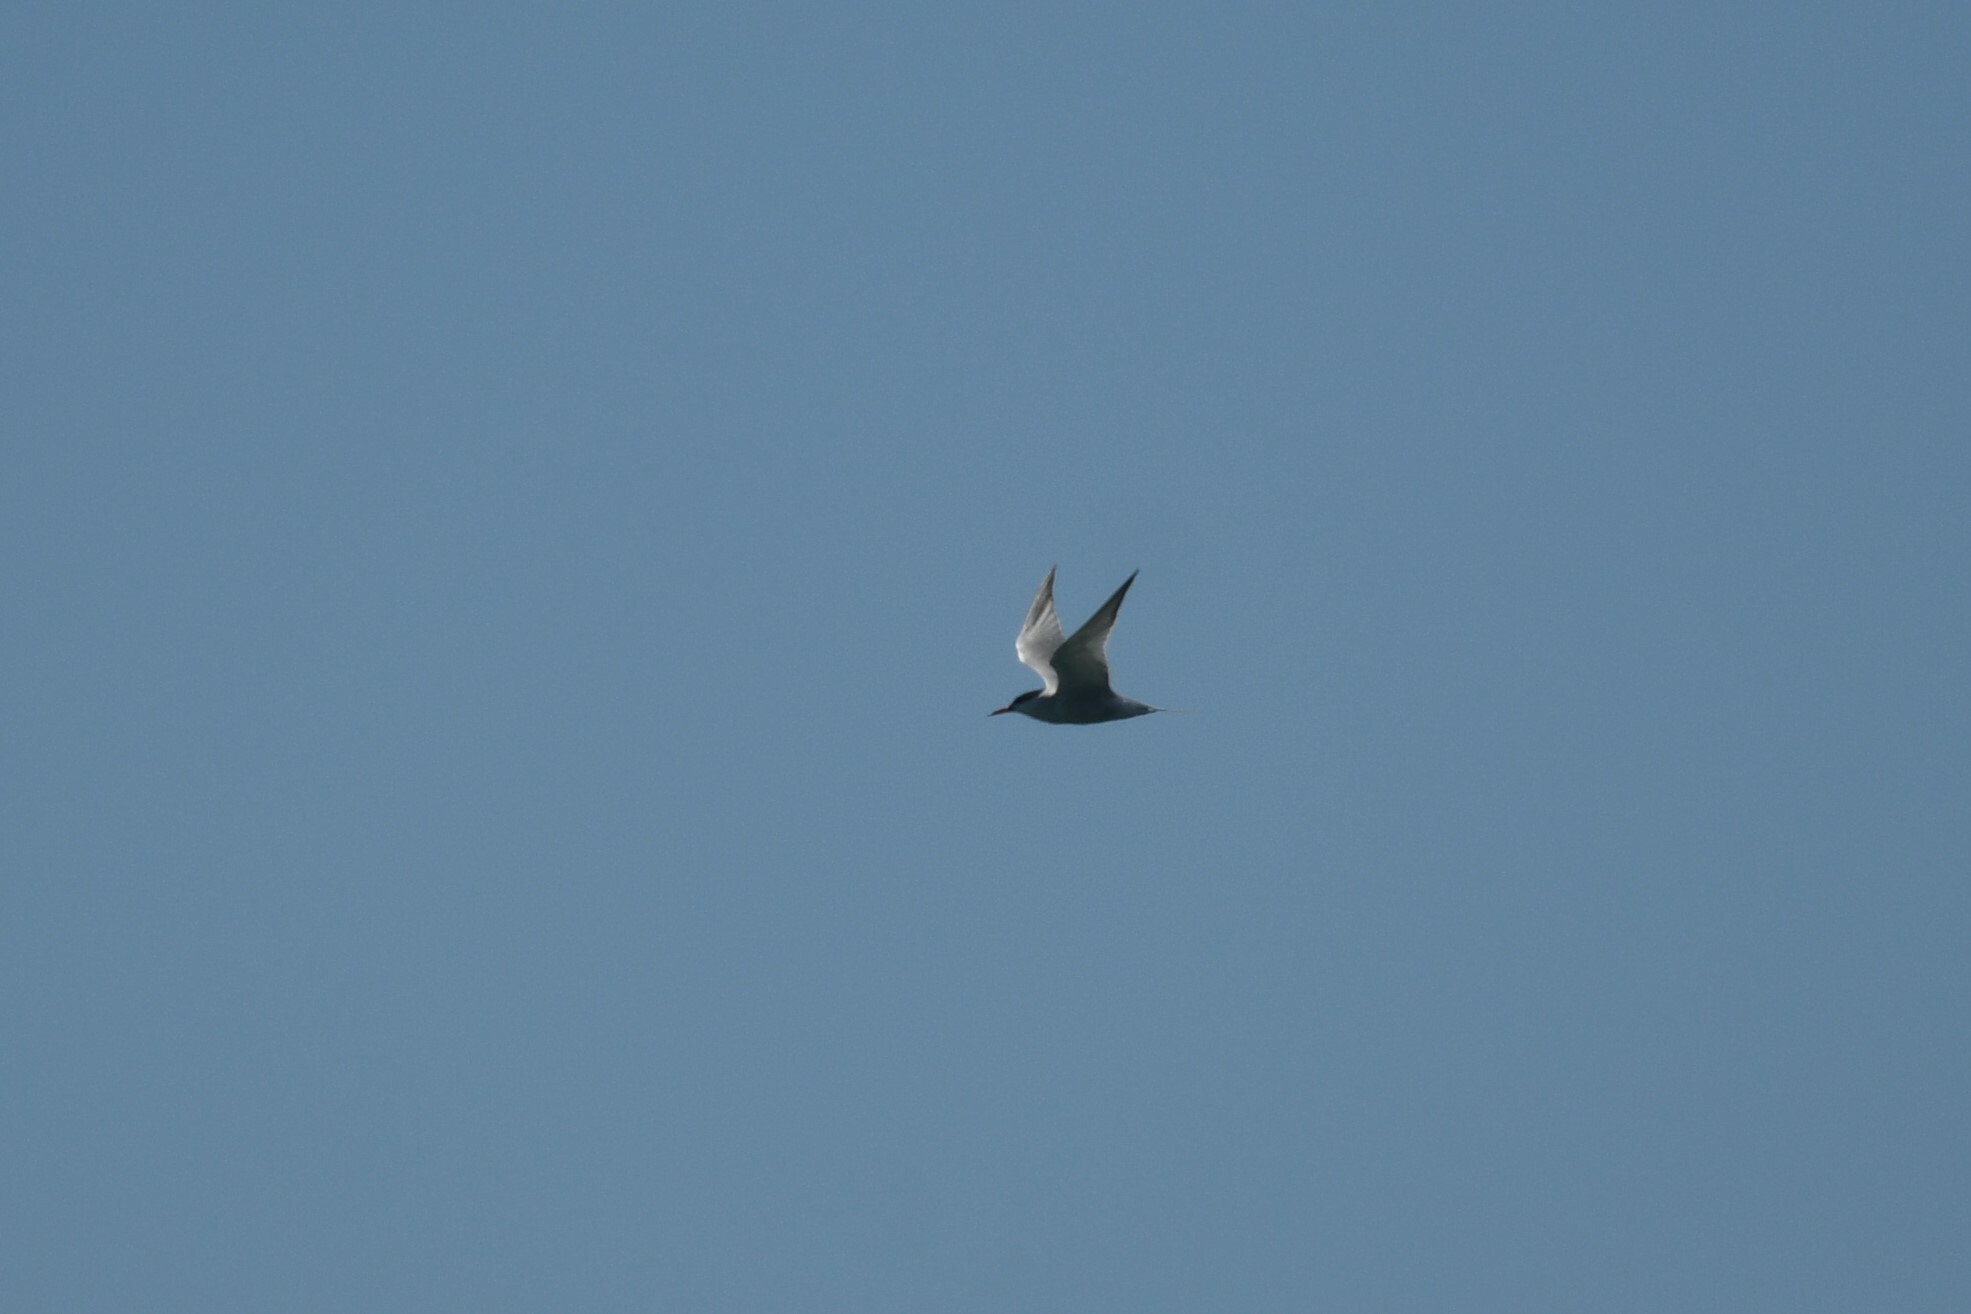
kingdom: Animalia
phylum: Chordata
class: Aves
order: Charadriiformes
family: Laridae
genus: Sterna
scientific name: Sterna hirundo
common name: Common tern
